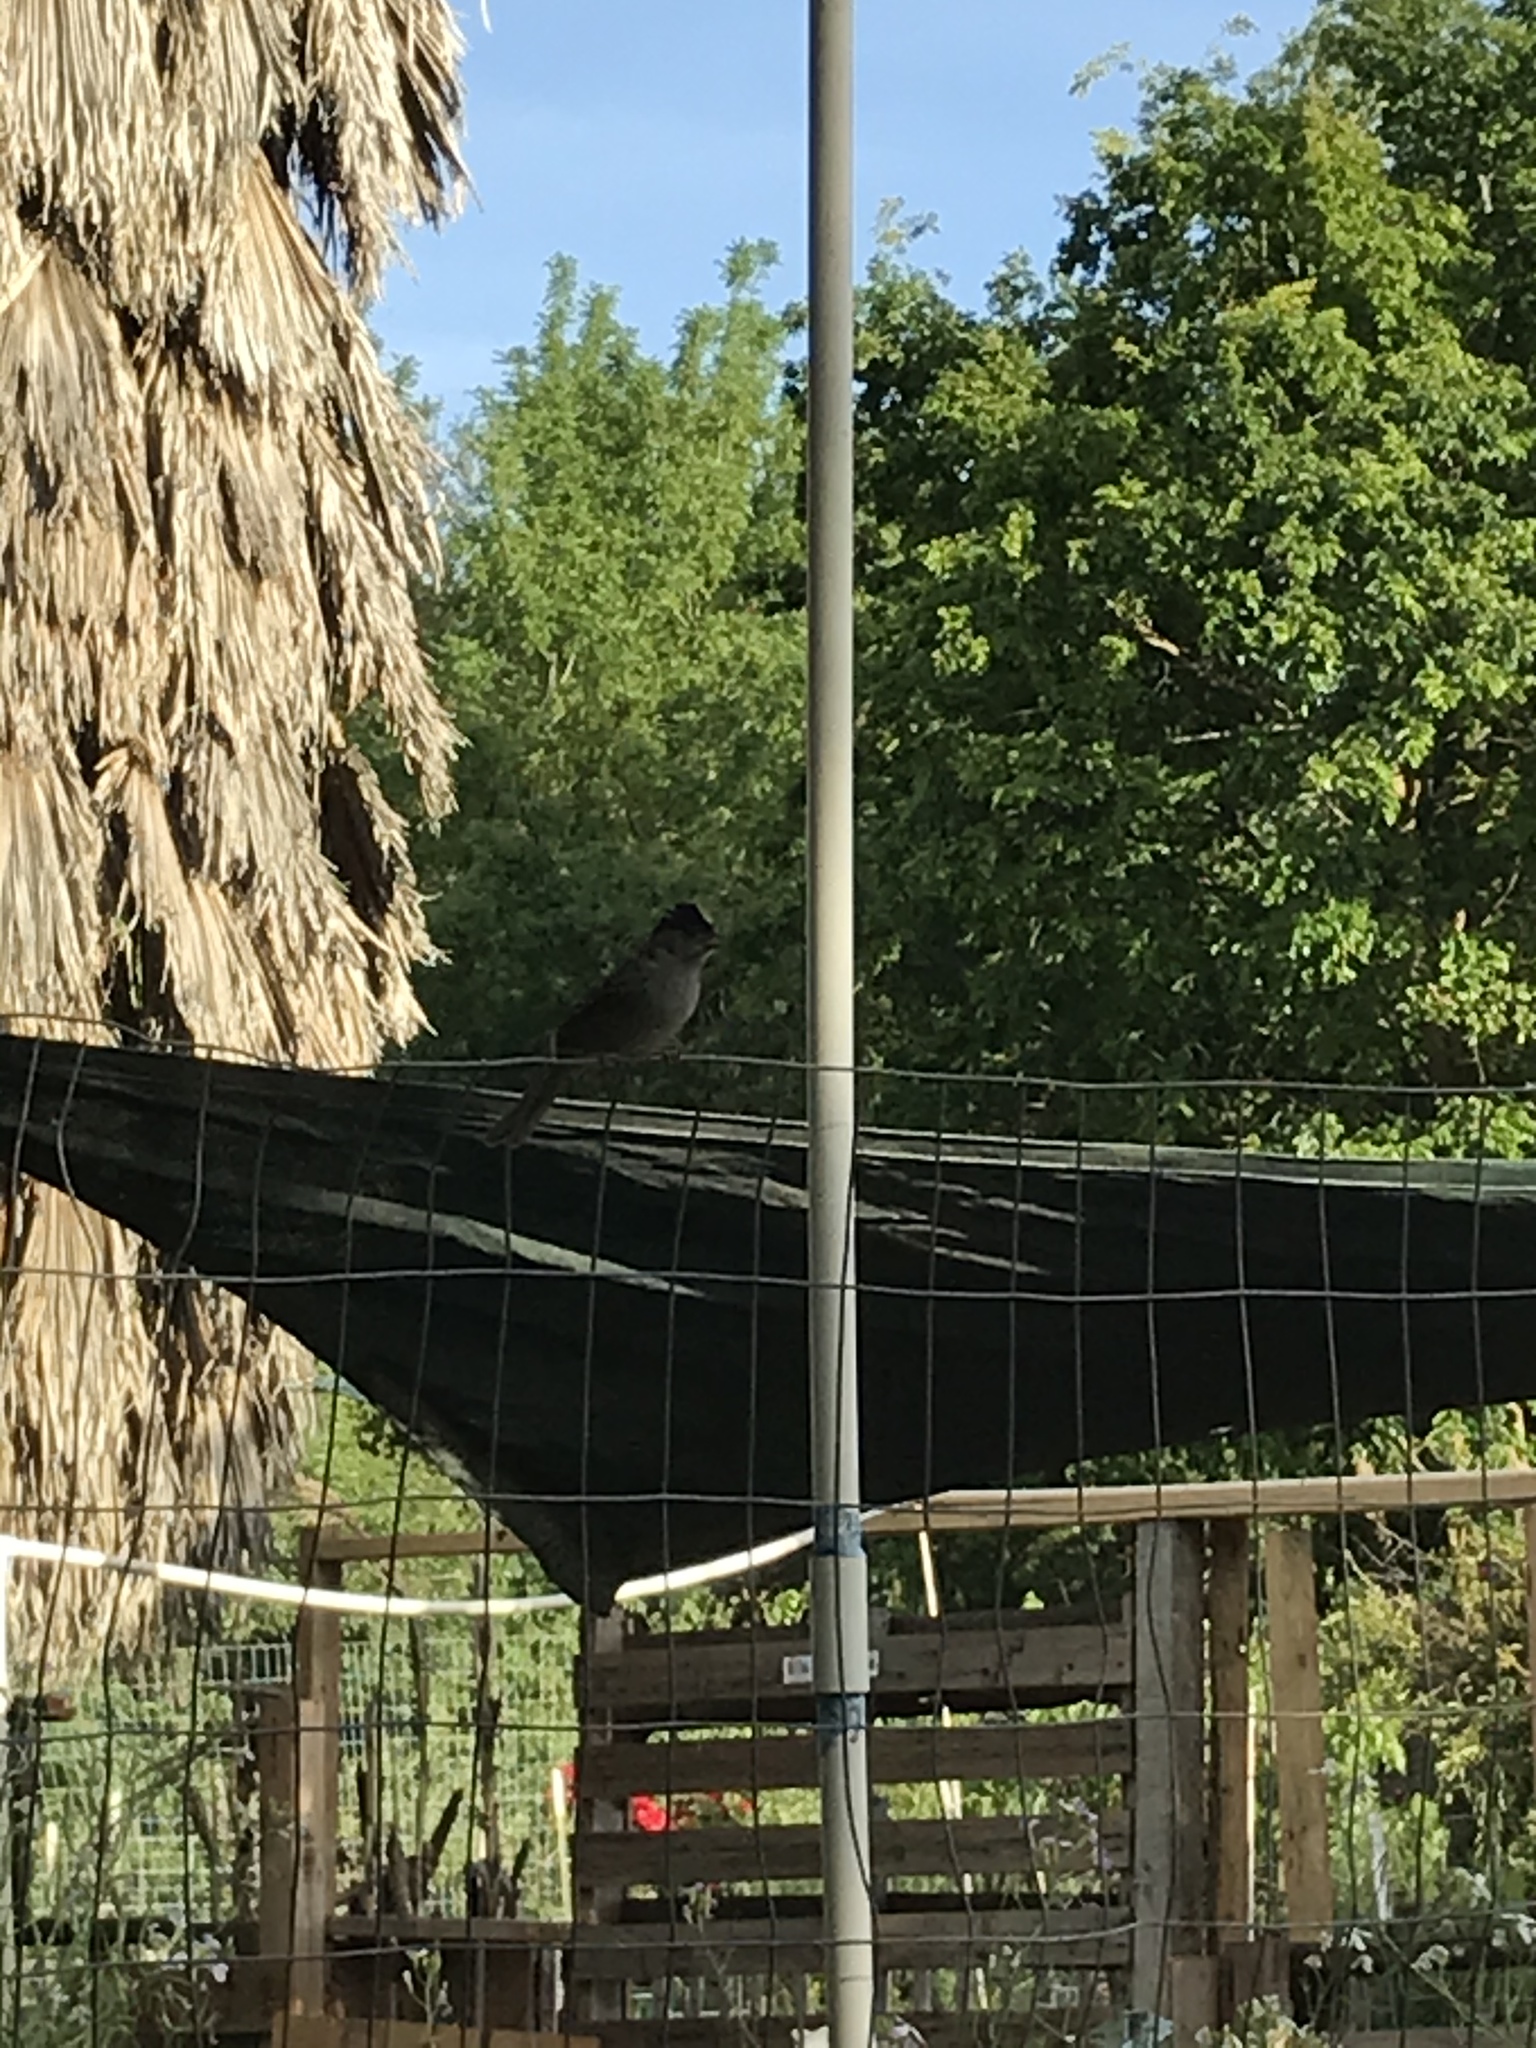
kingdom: Animalia
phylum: Chordata
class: Aves
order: Passeriformes
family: Passerellidae
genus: Zonotrichia
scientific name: Zonotrichia atricapilla
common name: Golden-crowned sparrow
